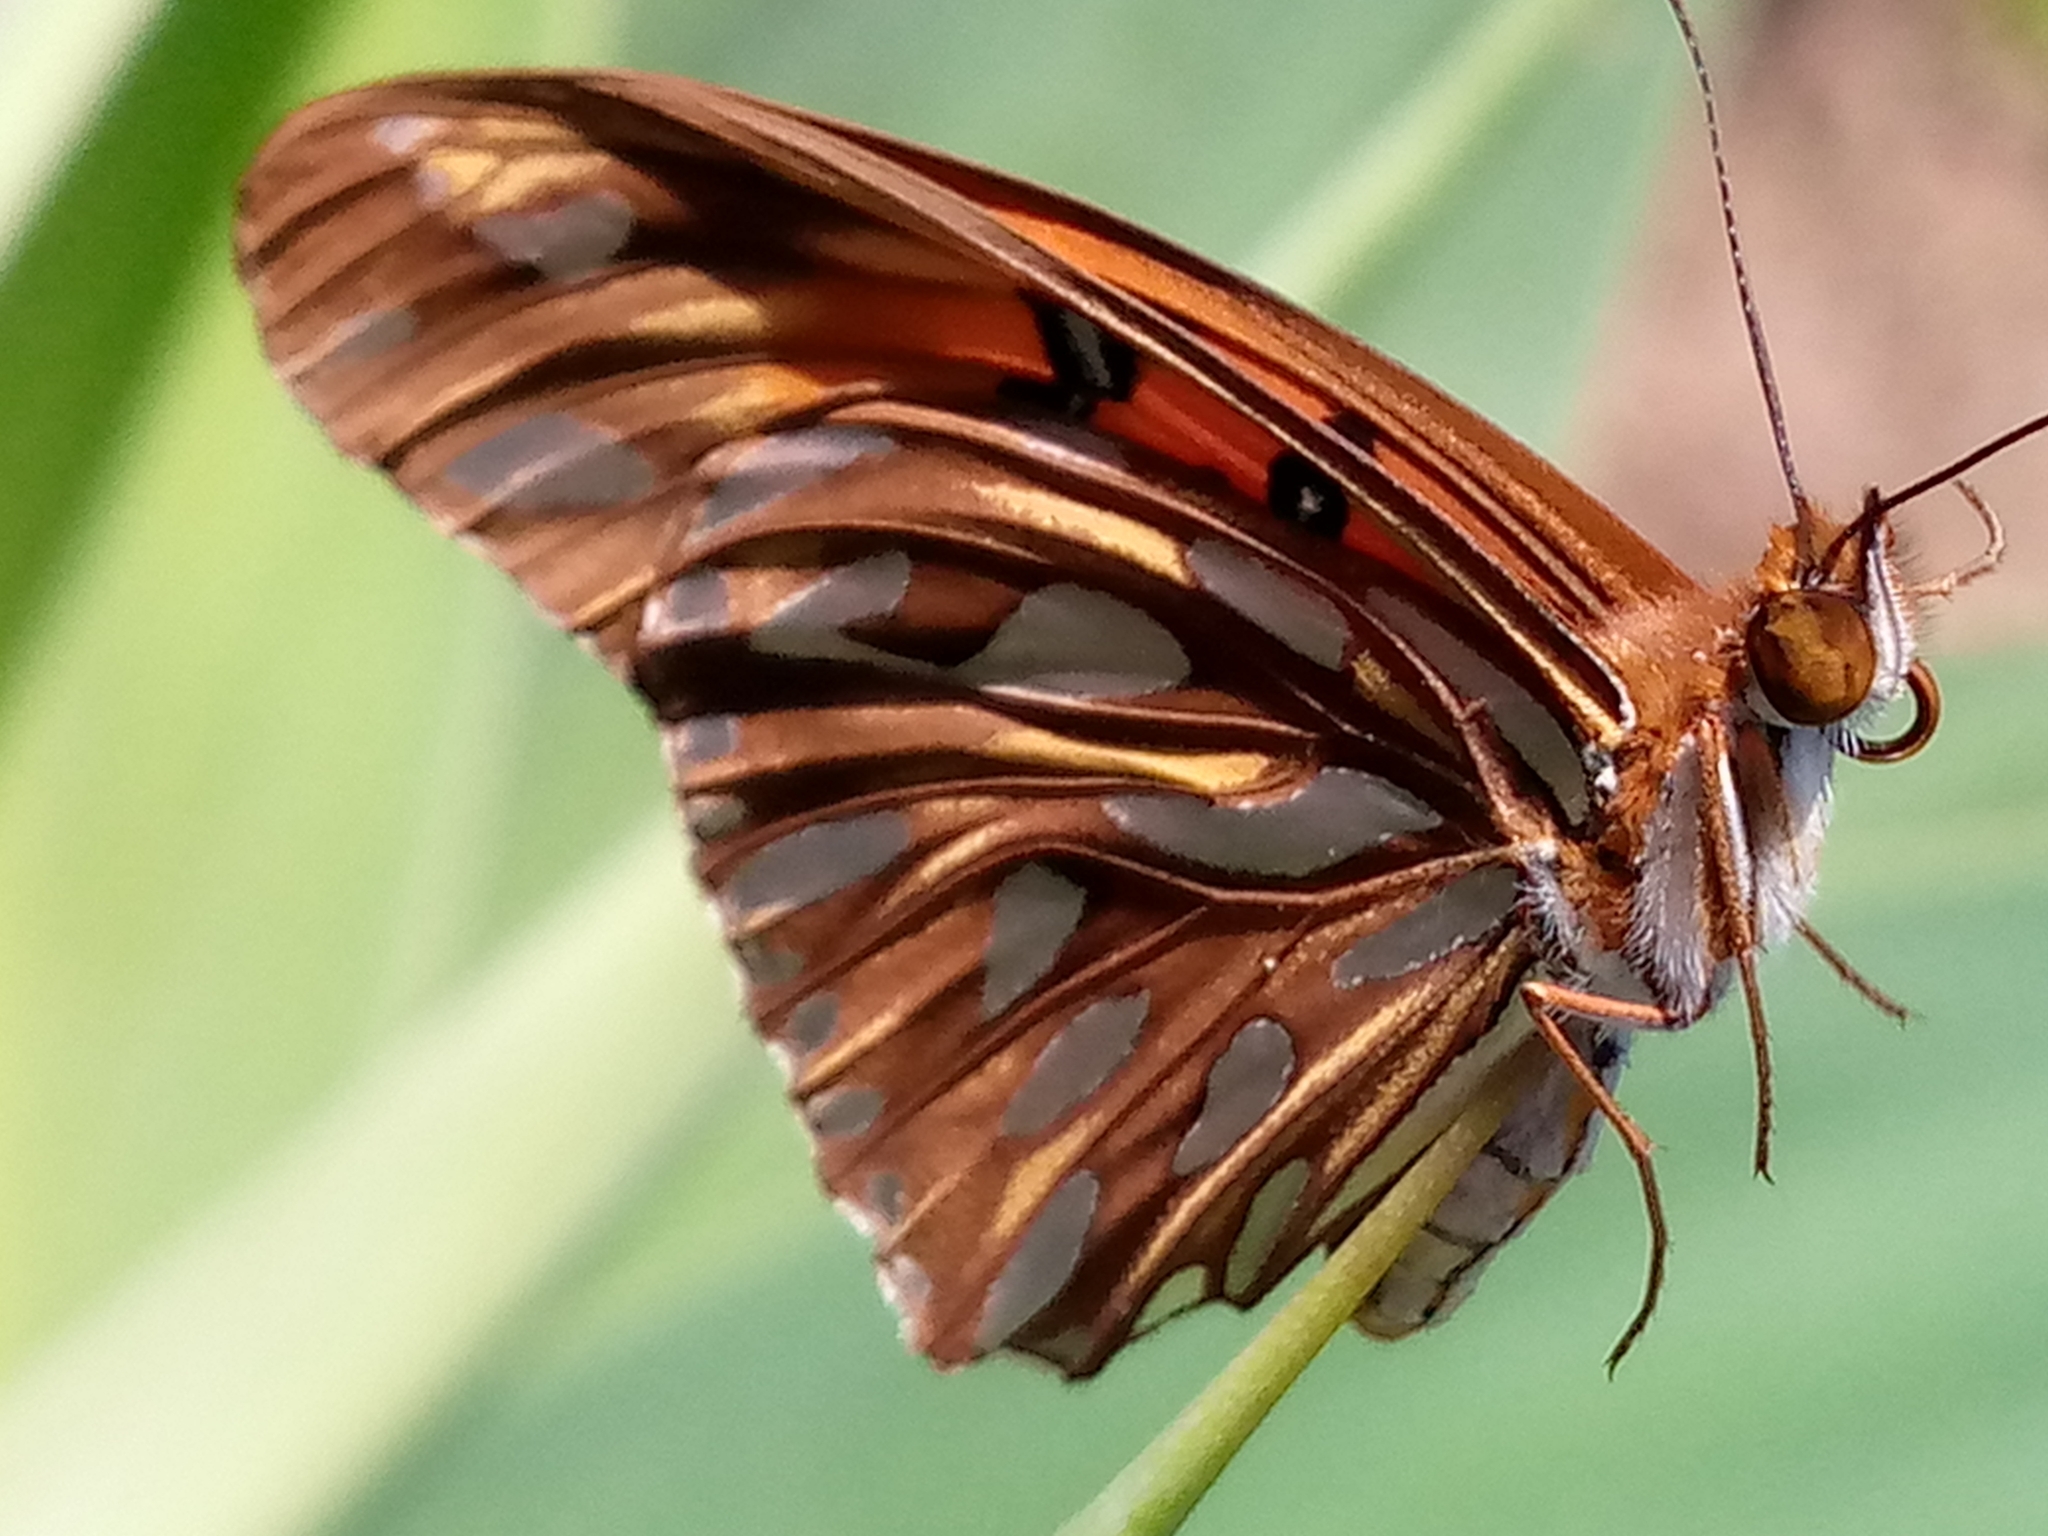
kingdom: Animalia
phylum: Arthropoda
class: Insecta
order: Lepidoptera
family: Nymphalidae
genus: Dione
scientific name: Dione vanillae
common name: Gulf fritillary
